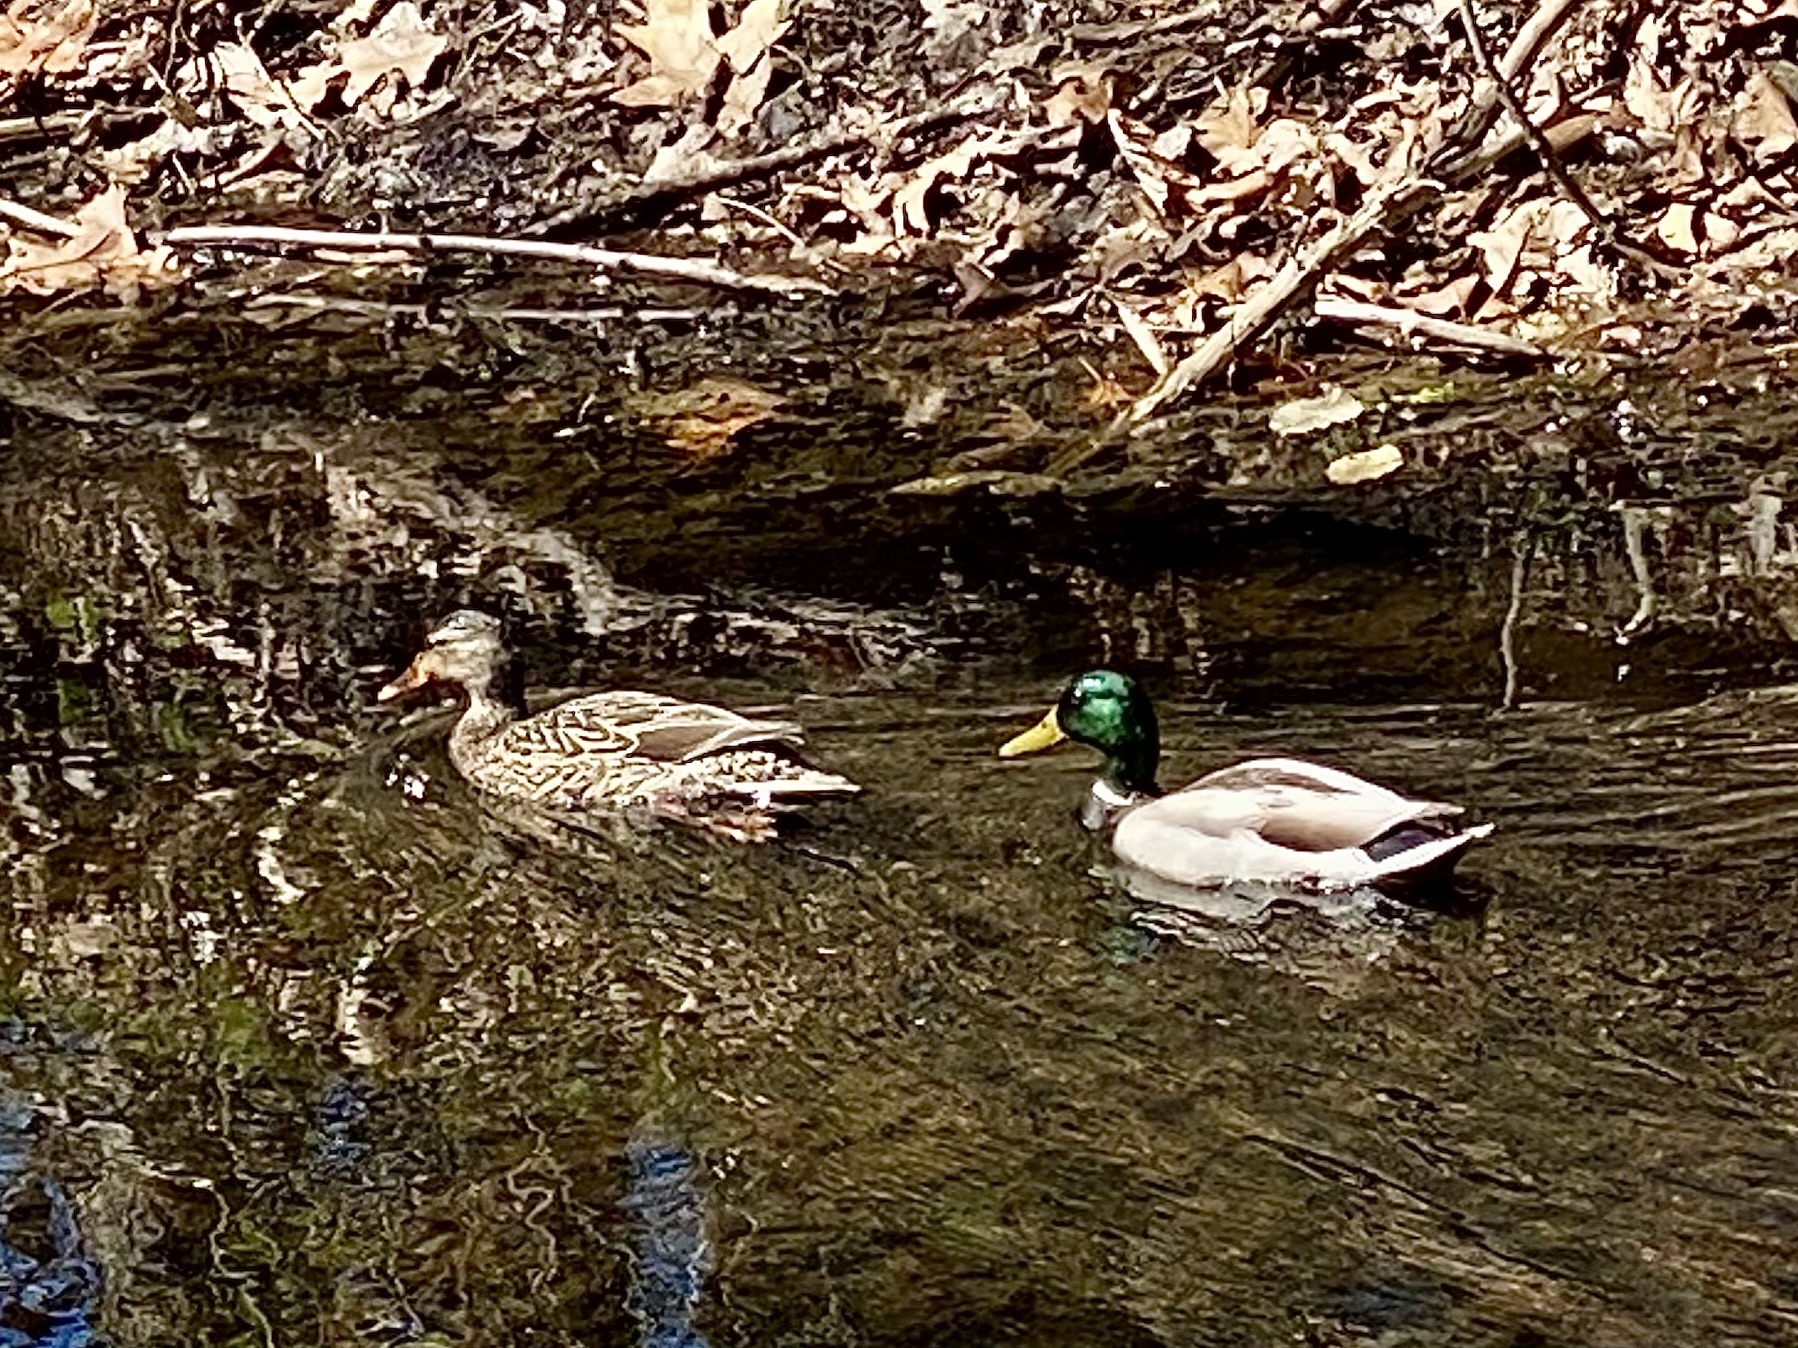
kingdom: Animalia
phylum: Chordata
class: Aves
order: Anseriformes
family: Anatidae
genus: Anas
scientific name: Anas platyrhynchos
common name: Mallard
